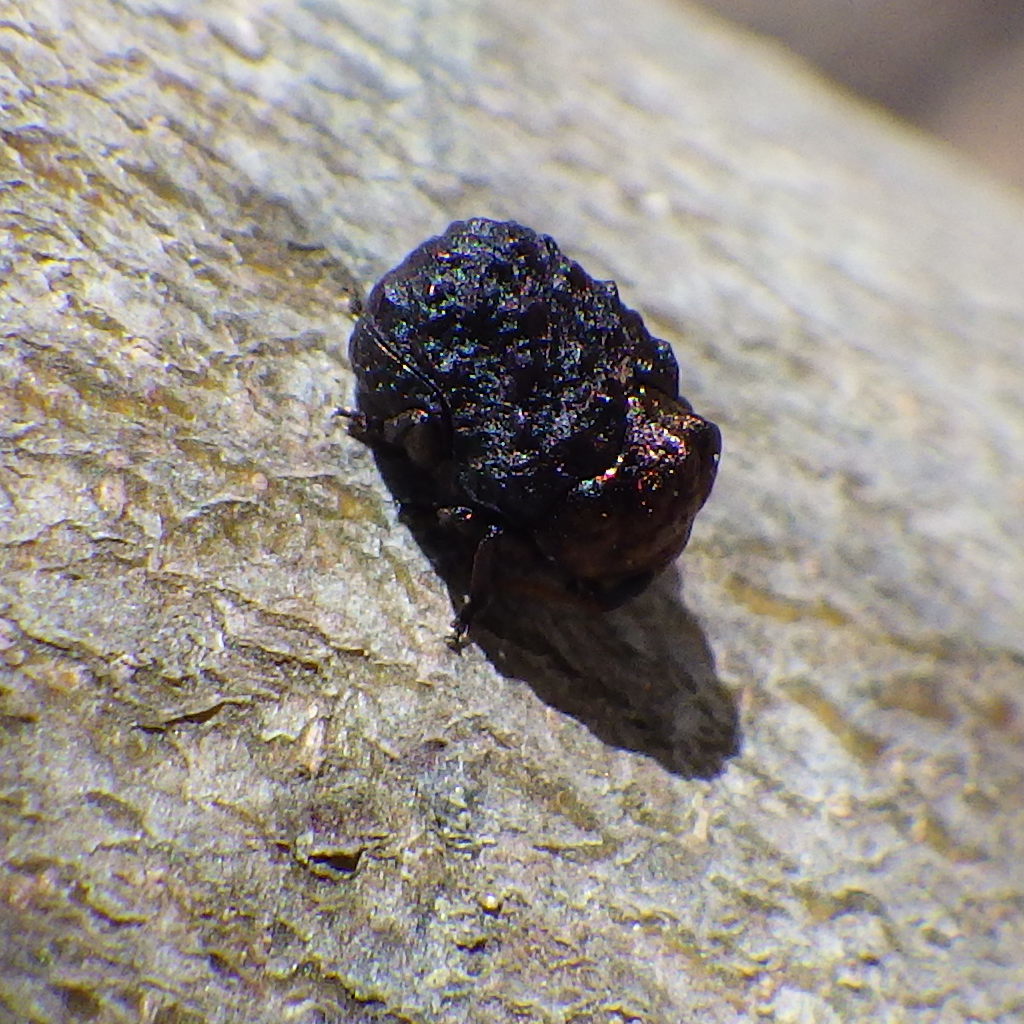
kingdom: Animalia
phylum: Arthropoda
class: Insecta
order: Coleoptera
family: Chrysomelidae
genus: Neochlamisus
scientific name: Neochlamisus bebbianae
